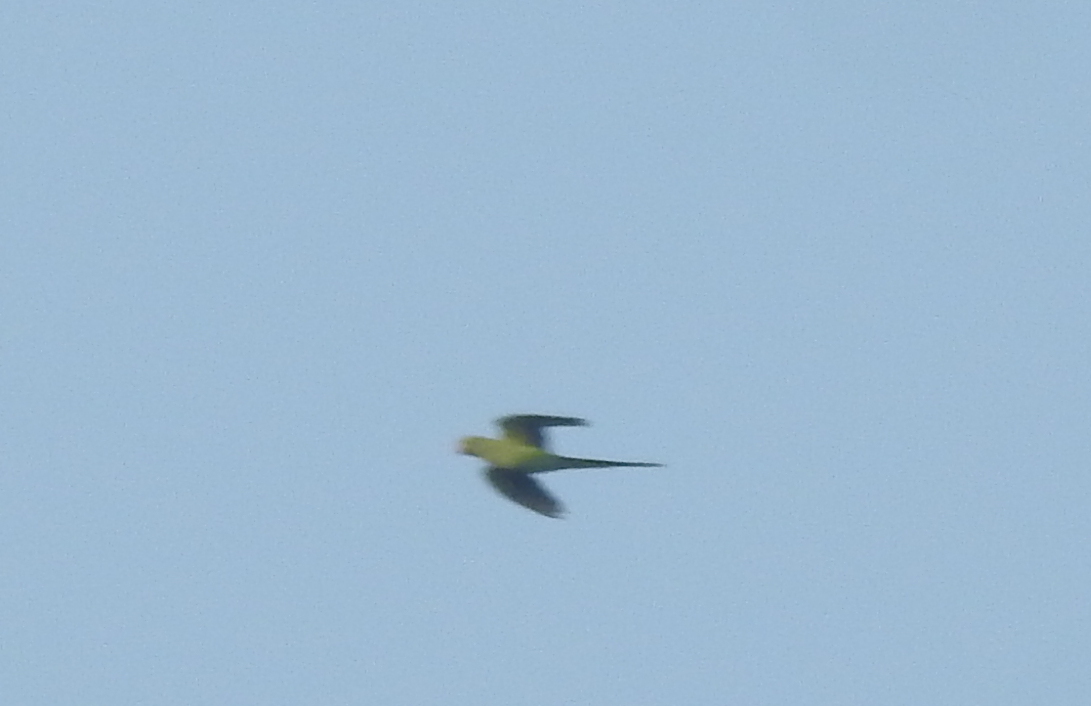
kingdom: Animalia
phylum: Chordata
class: Aves
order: Psittaciformes
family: Psittacidae
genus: Psittacula
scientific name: Psittacula krameri
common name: Rose-ringed parakeet
